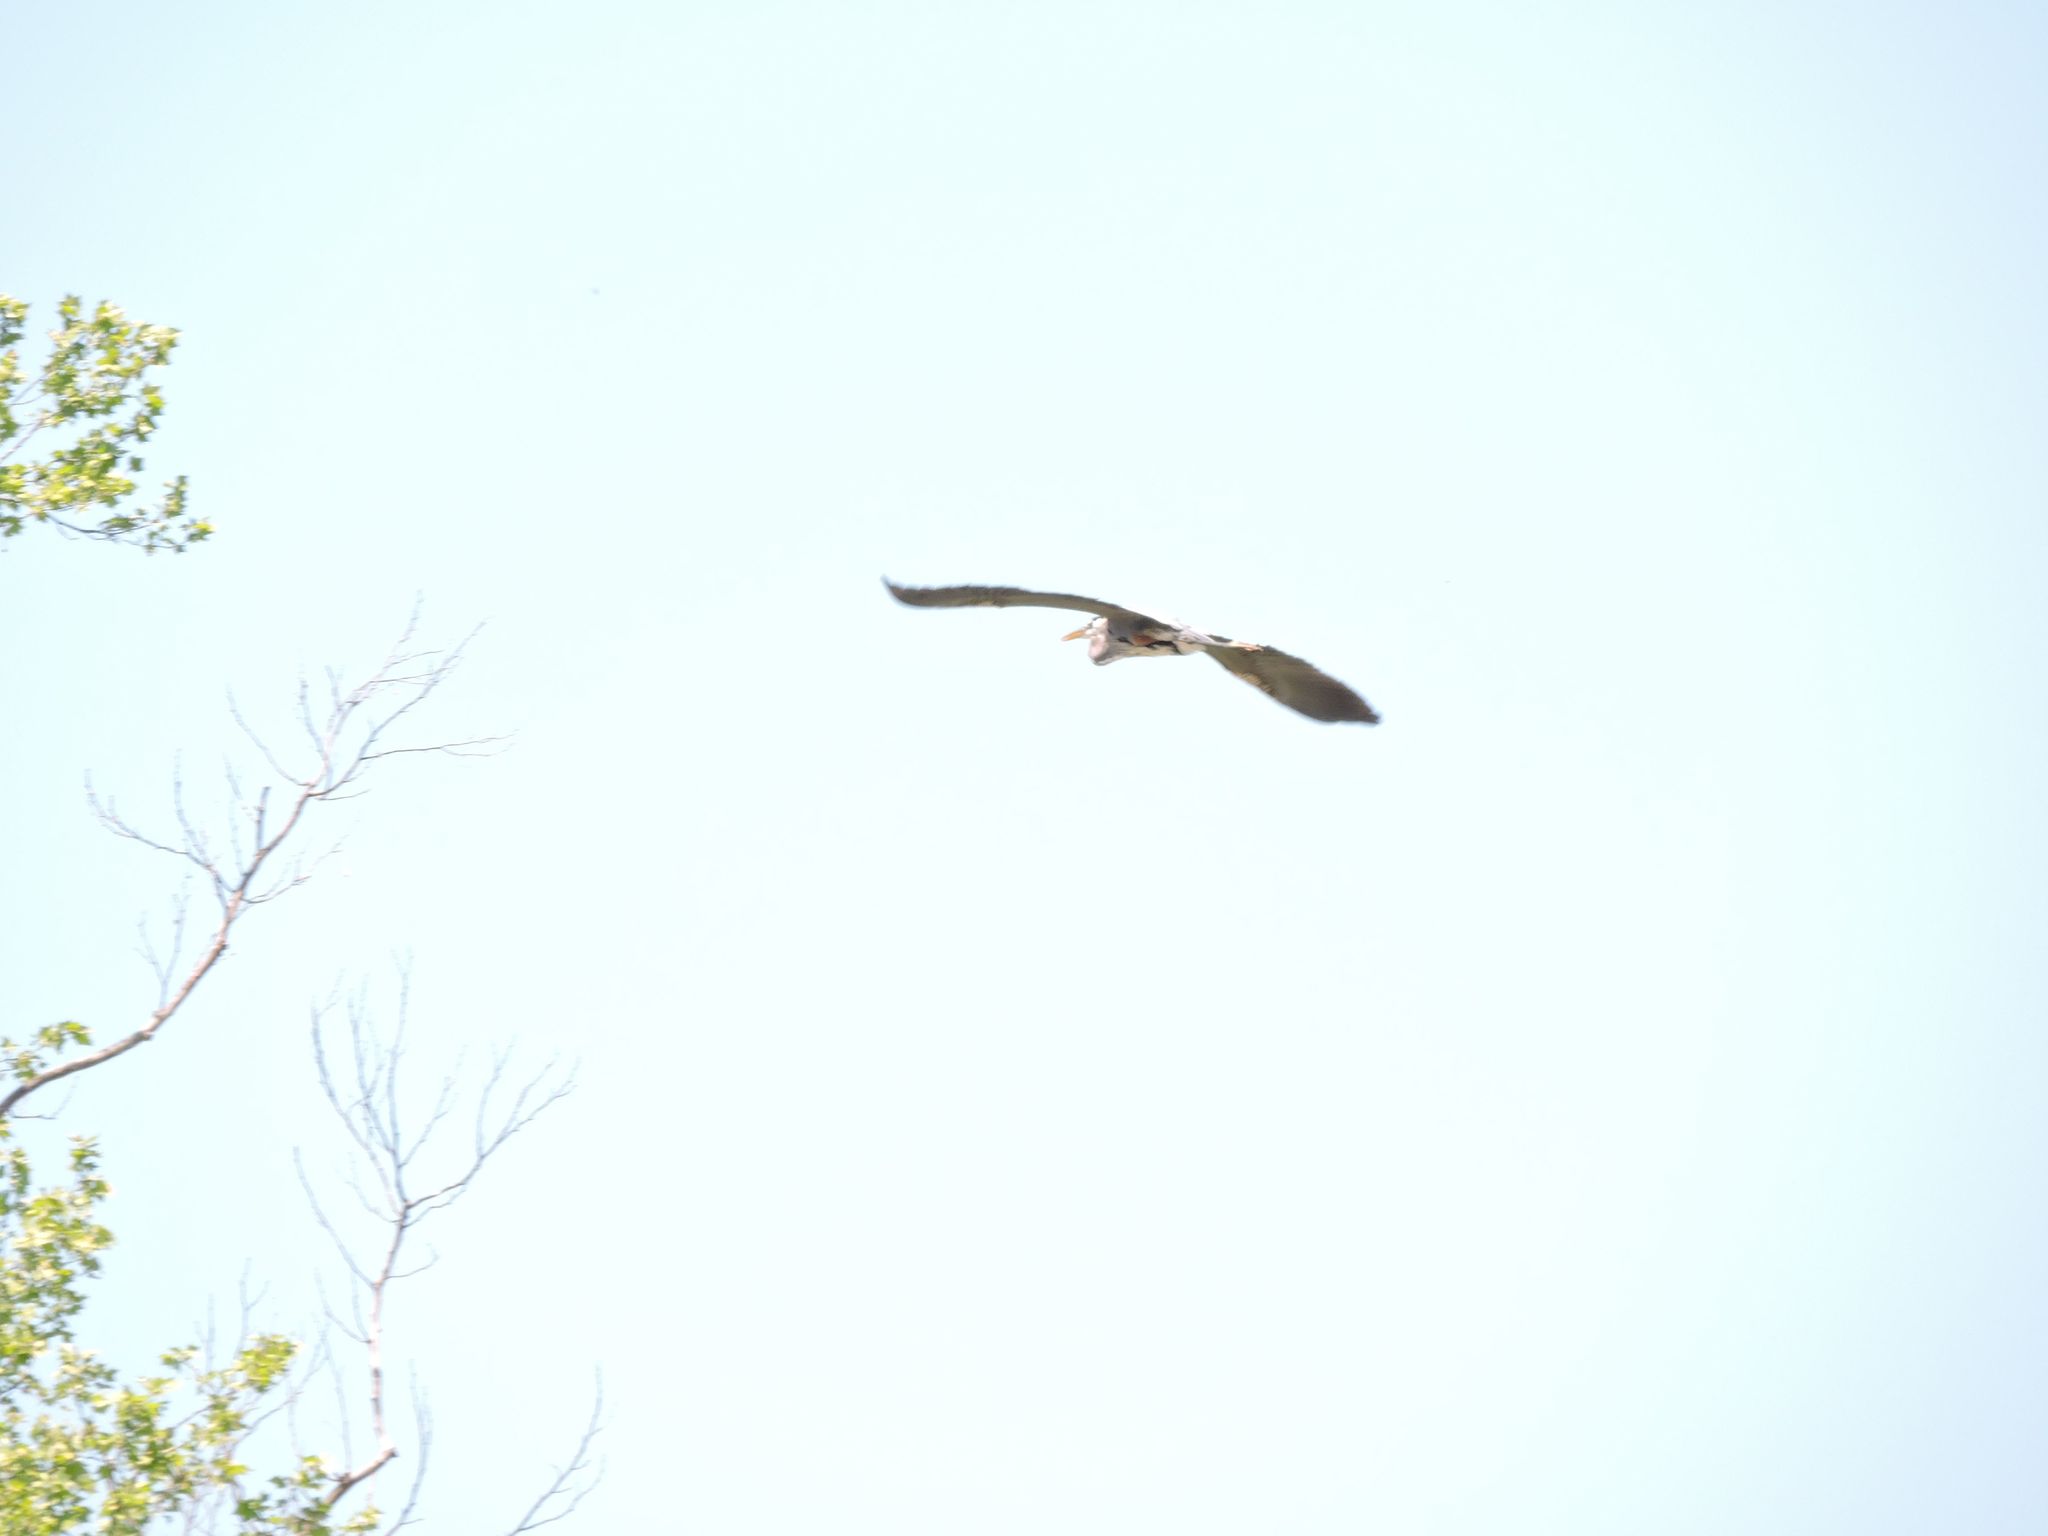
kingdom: Animalia
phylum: Chordata
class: Aves
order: Pelecaniformes
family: Ardeidae
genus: Ardea
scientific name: Ardea herodias
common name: Great blue heron
